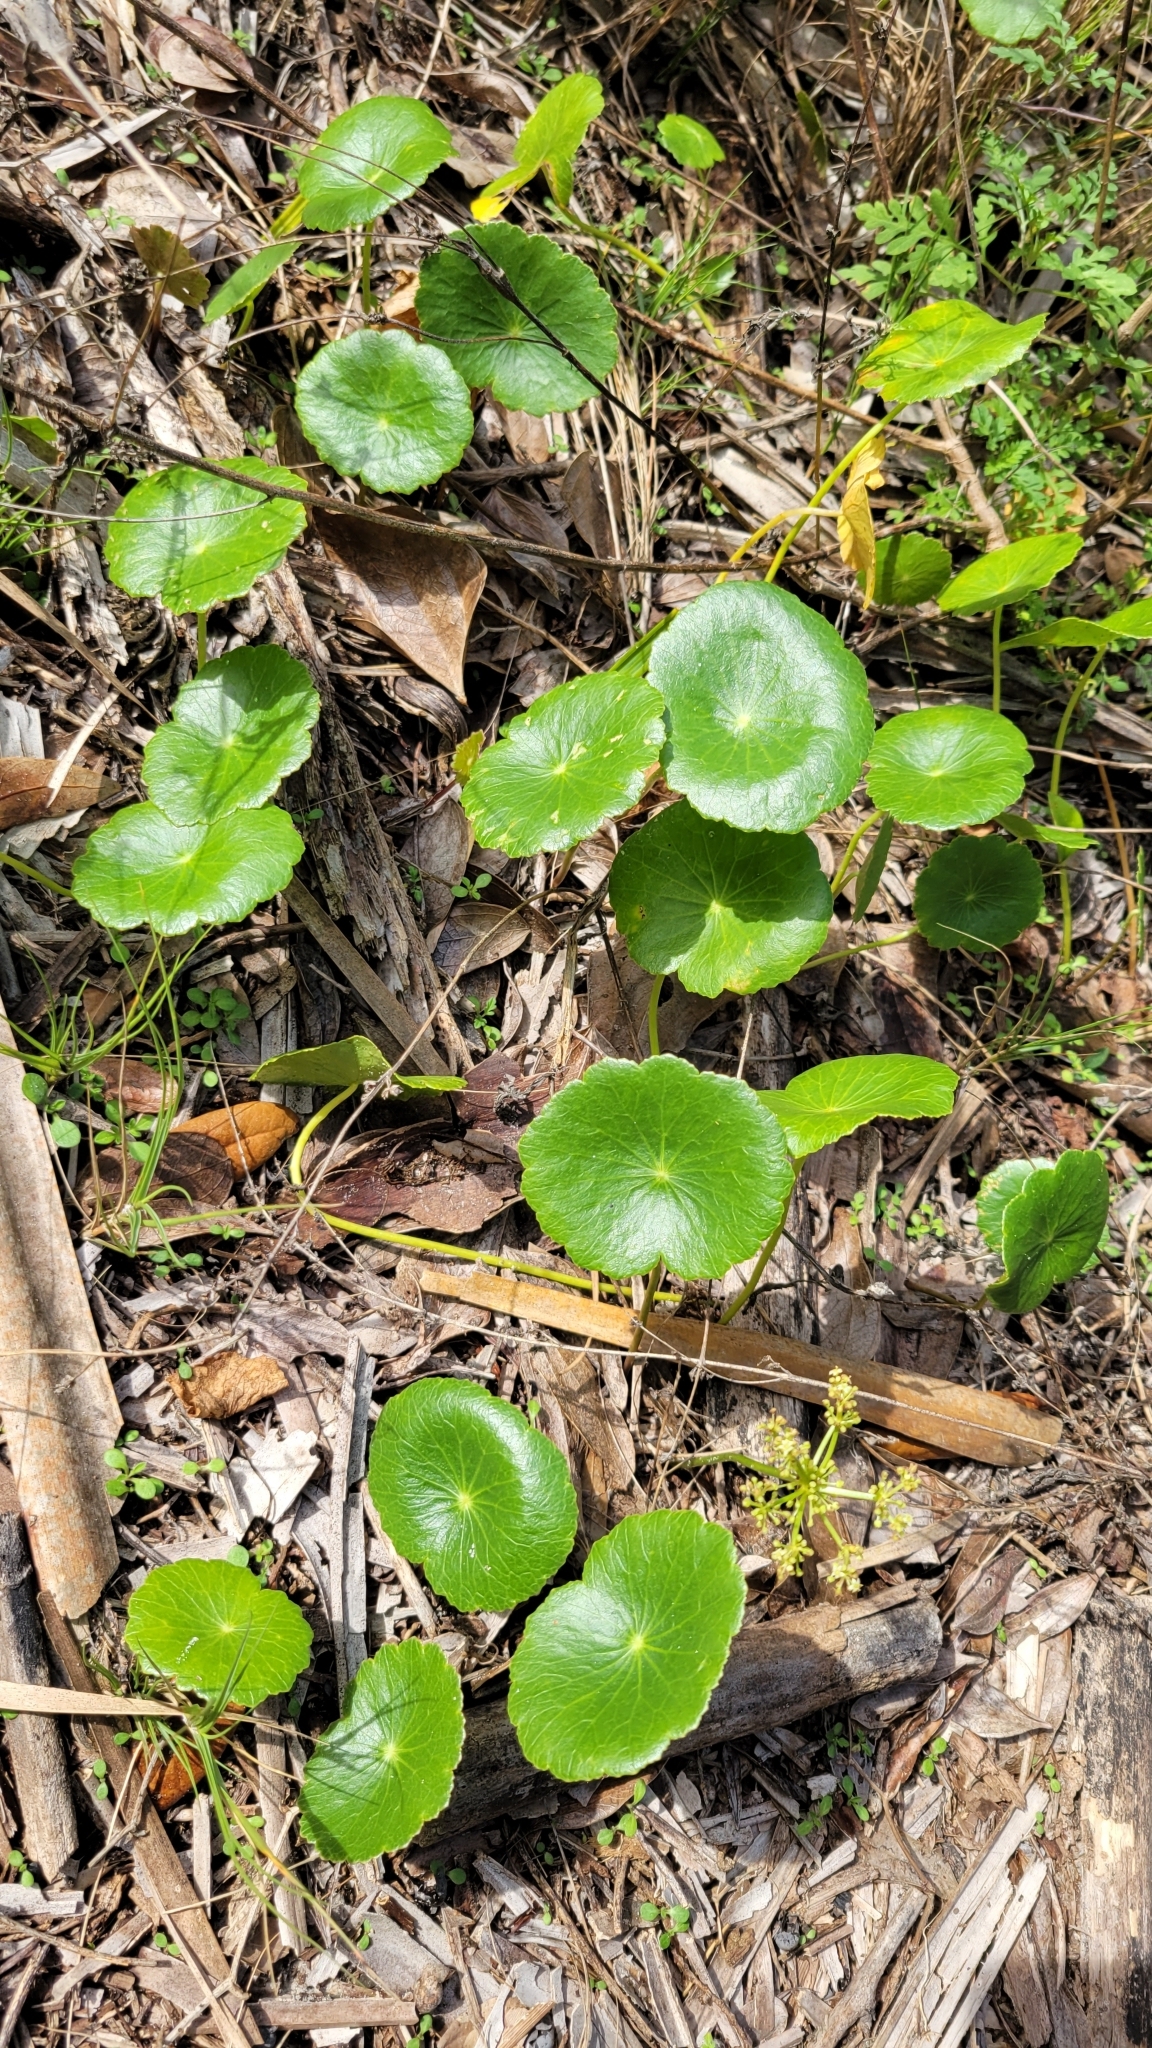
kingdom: Plantae
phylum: Tracheophyta
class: Magnoliopsida
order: Apiales
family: Araliaceae
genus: Hydrocotyle
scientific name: Hydrocotyle bonariensis
